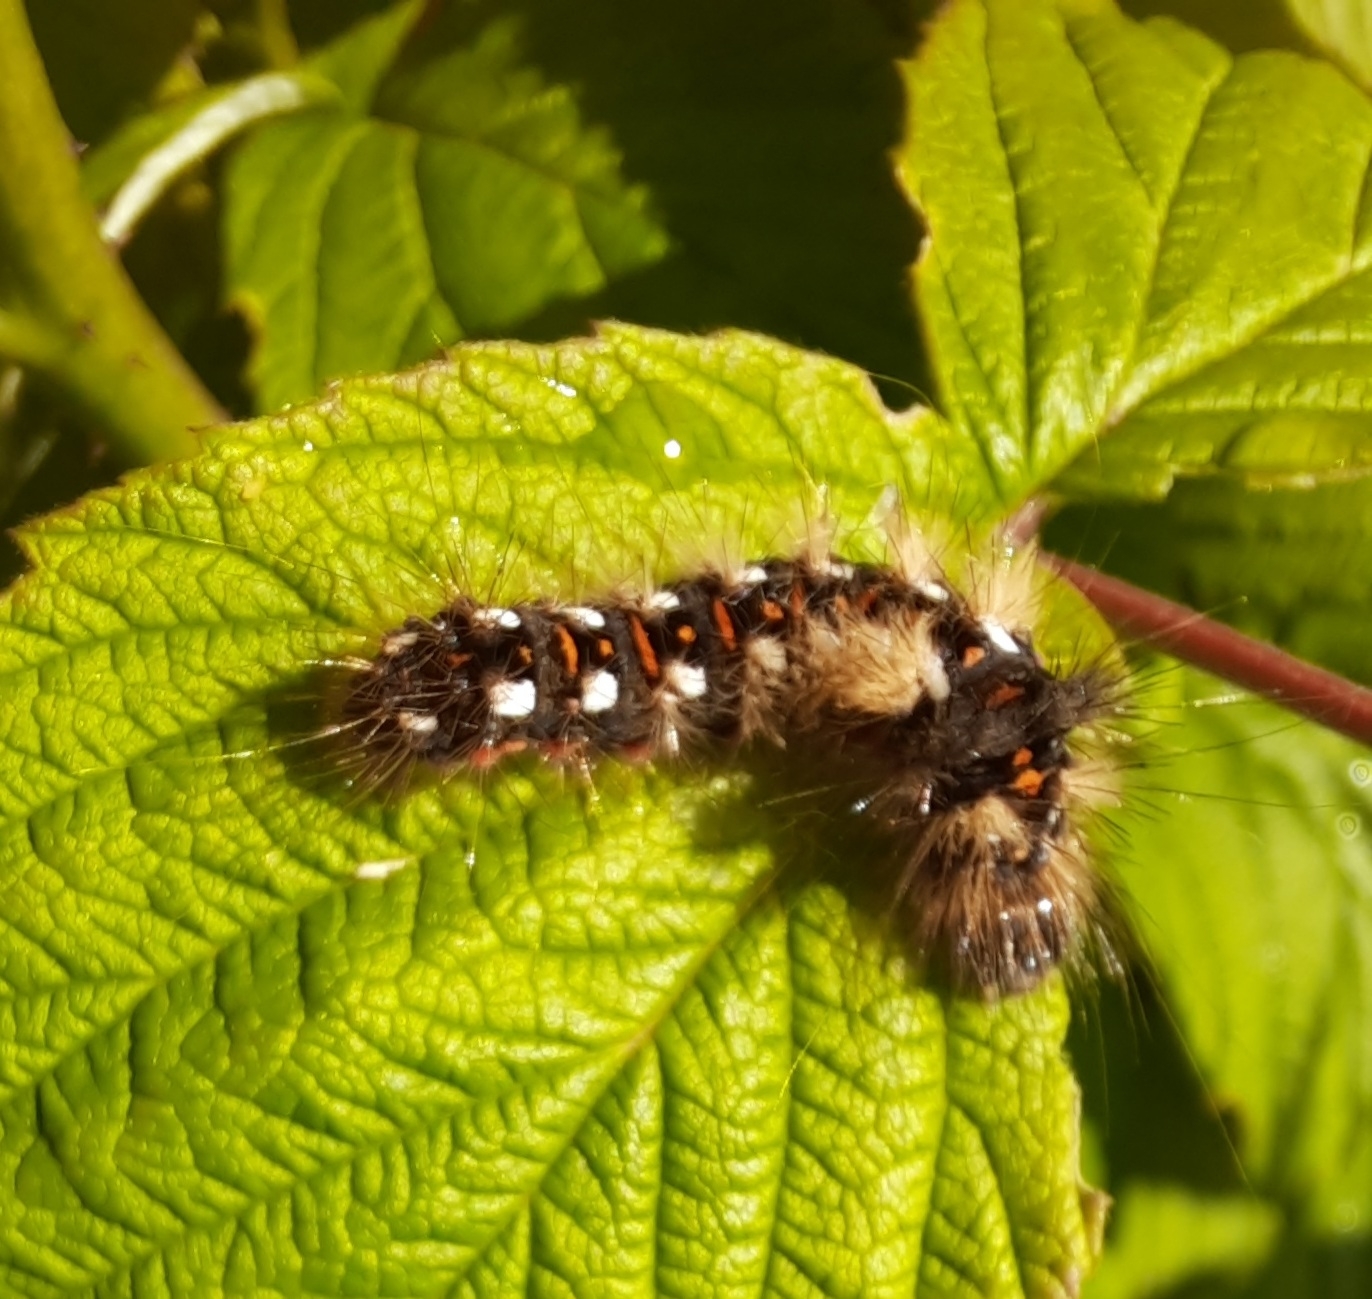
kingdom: Animalia
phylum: Arthropoda
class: Insecta
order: Lepidoptera
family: Noctuidae
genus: Acronicta
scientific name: Acronicta rumicis
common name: Knot grass
